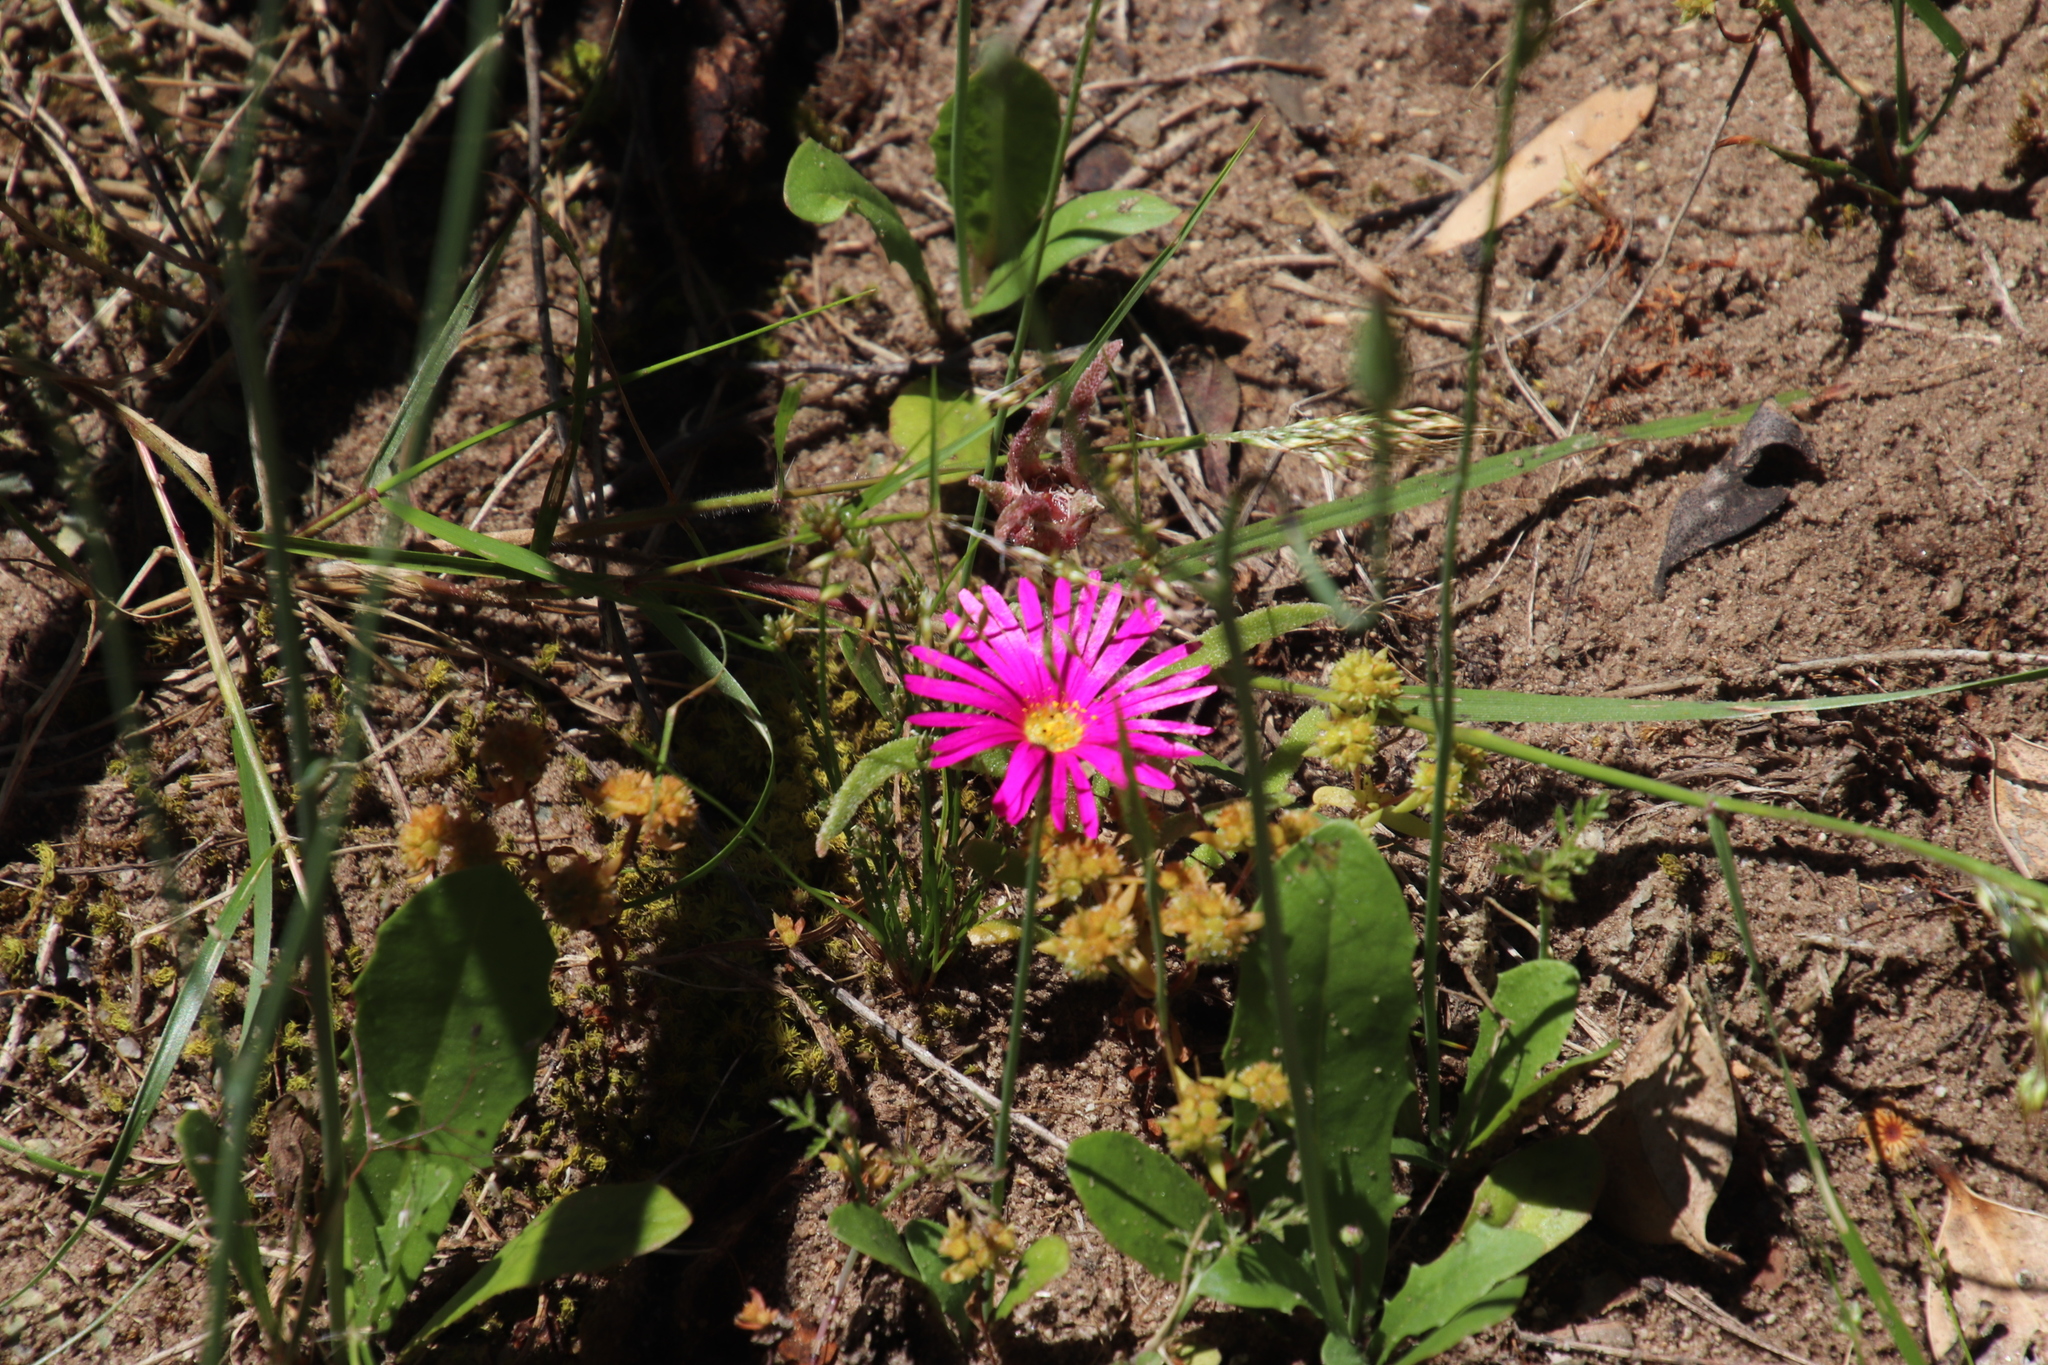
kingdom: Plantae
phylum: Tracheophyta
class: Magnoliopsida
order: Caryophyllales
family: Aizoaceae
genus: Cleretum
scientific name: Cleretum bellidiforme
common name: Livingstone daisy
